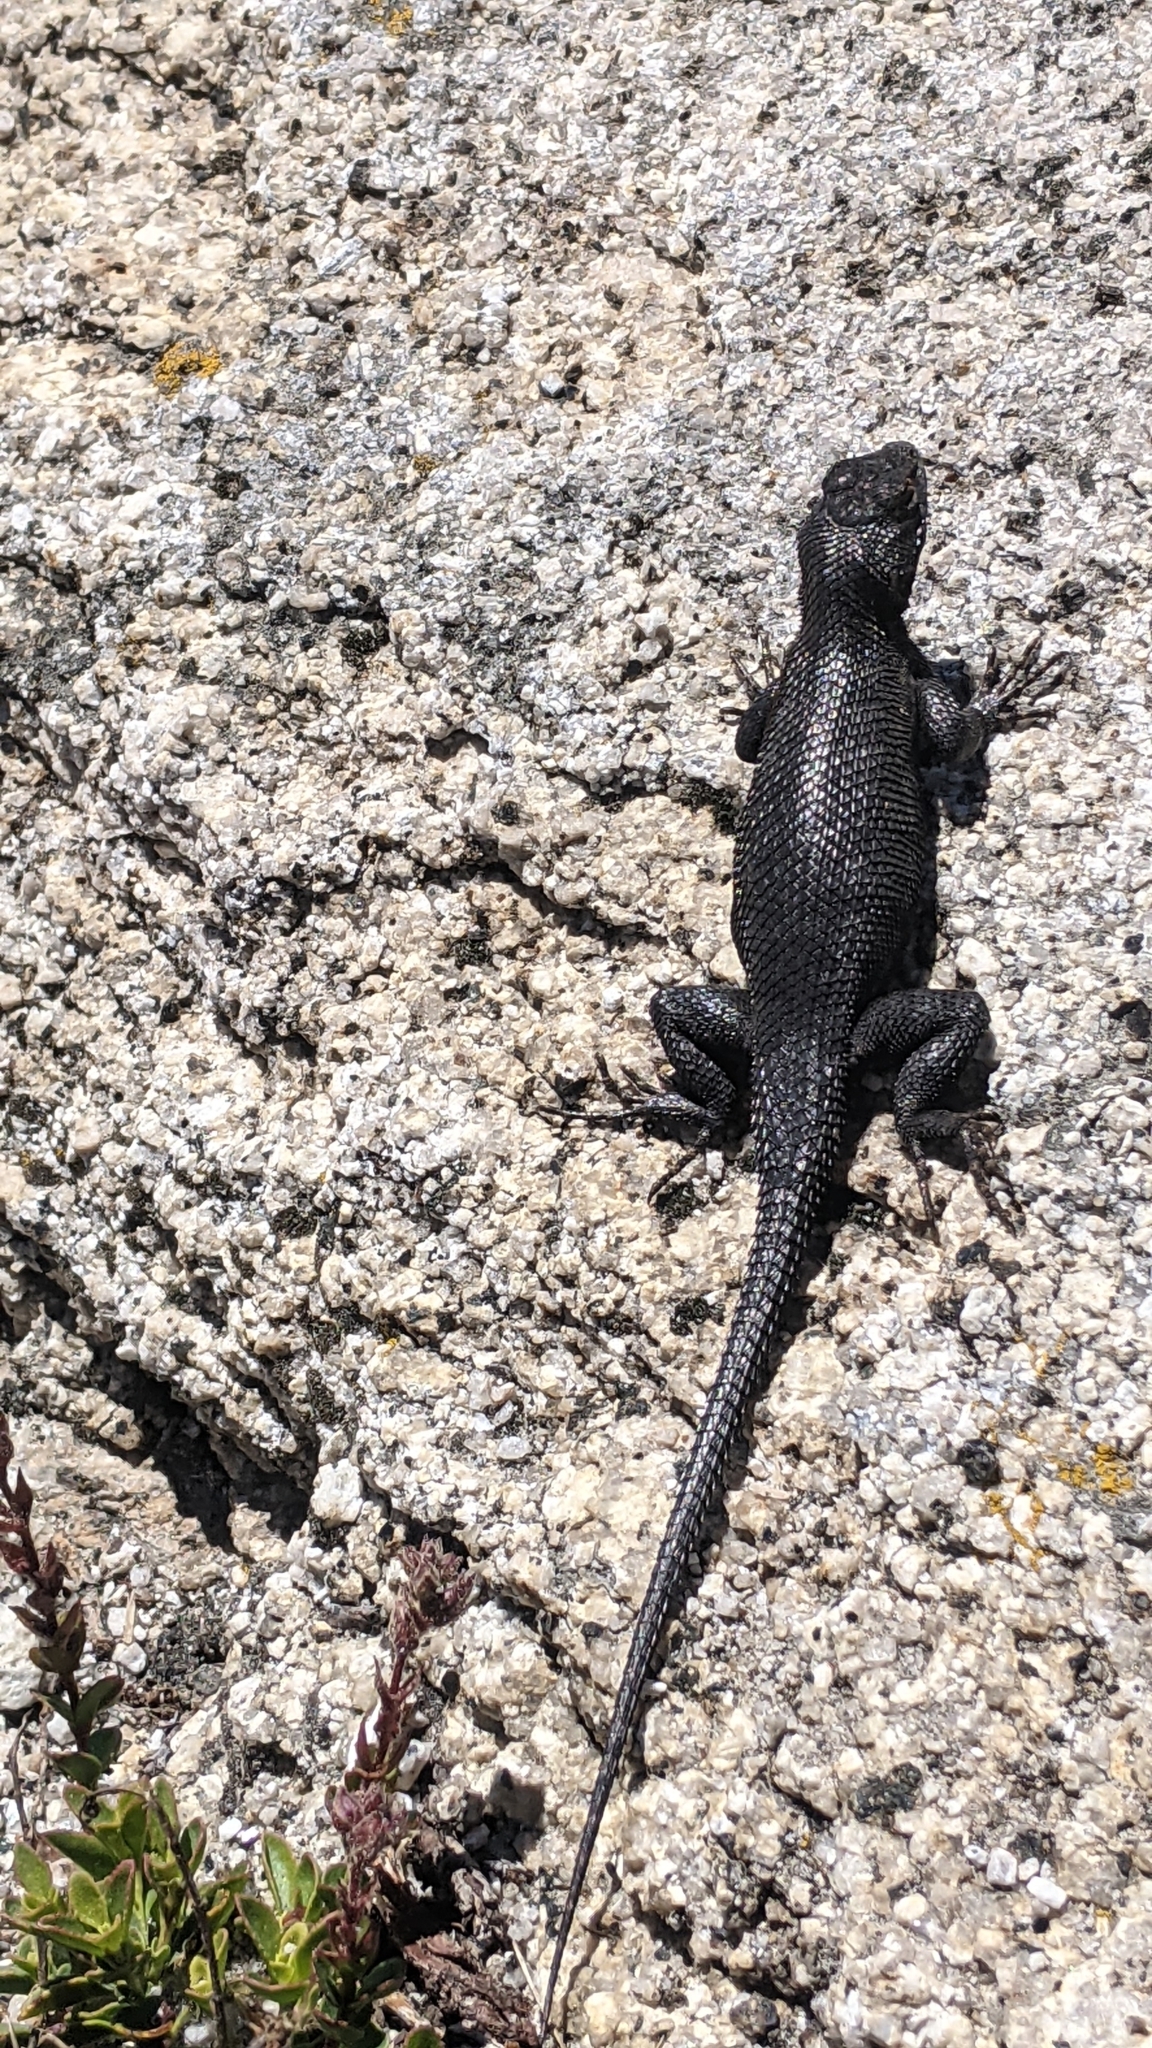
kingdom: Animalia
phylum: Chordata
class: Squamata
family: Phrynosomatidae
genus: Sceloporus
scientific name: Sceloporus occidentalis
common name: Western fence lizard
